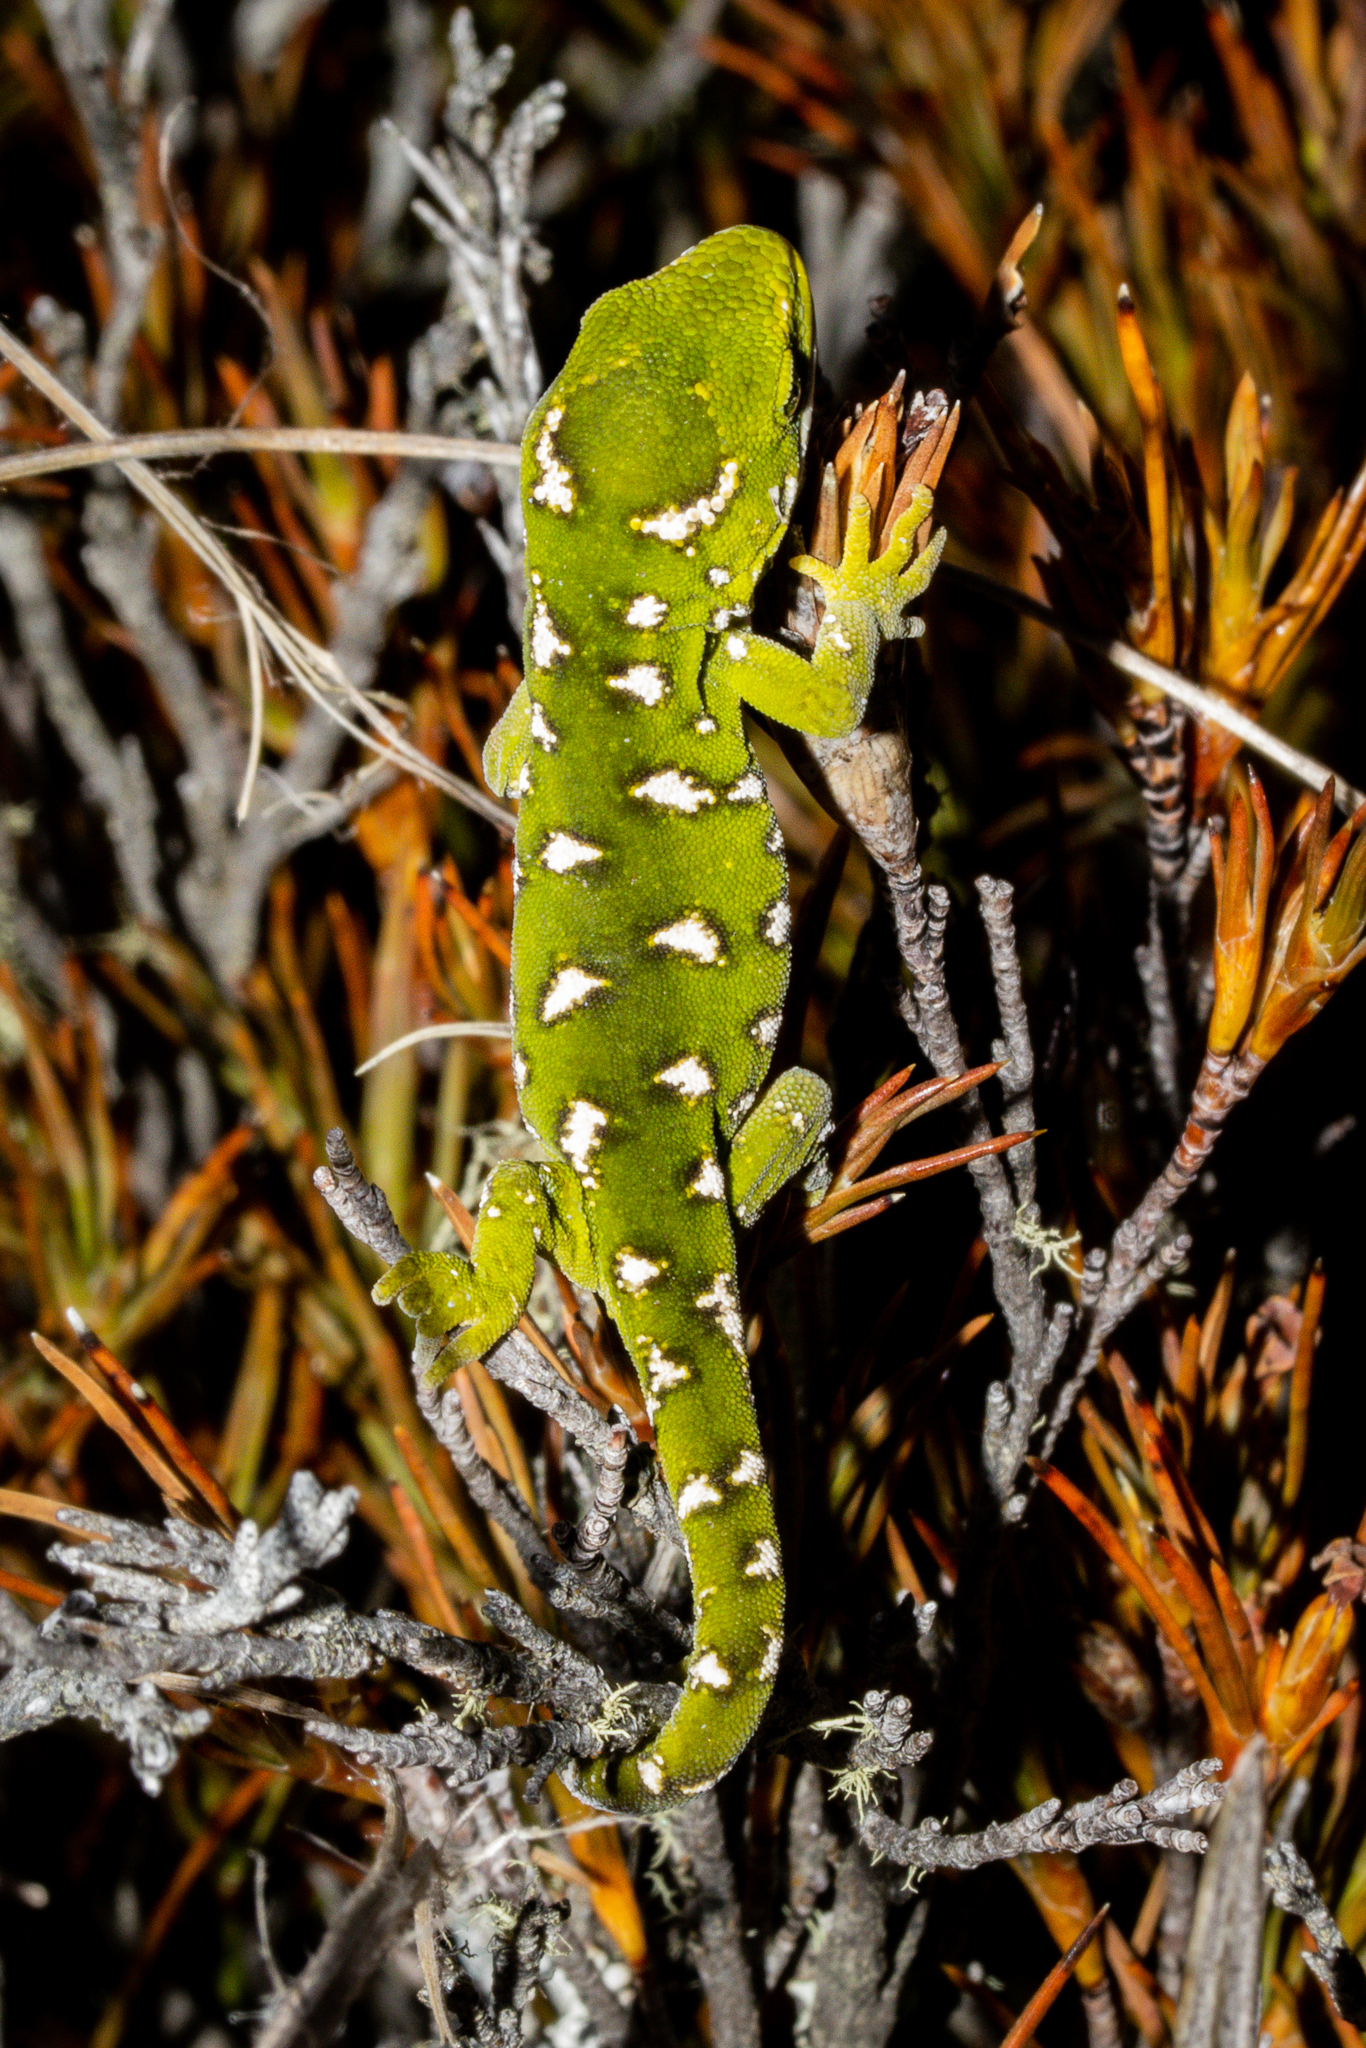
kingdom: Animalia
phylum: Chordata
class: Squamata
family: Diplodactylidae
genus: Naultinus
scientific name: Naultinus gemmeus
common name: Jewelled gecko
